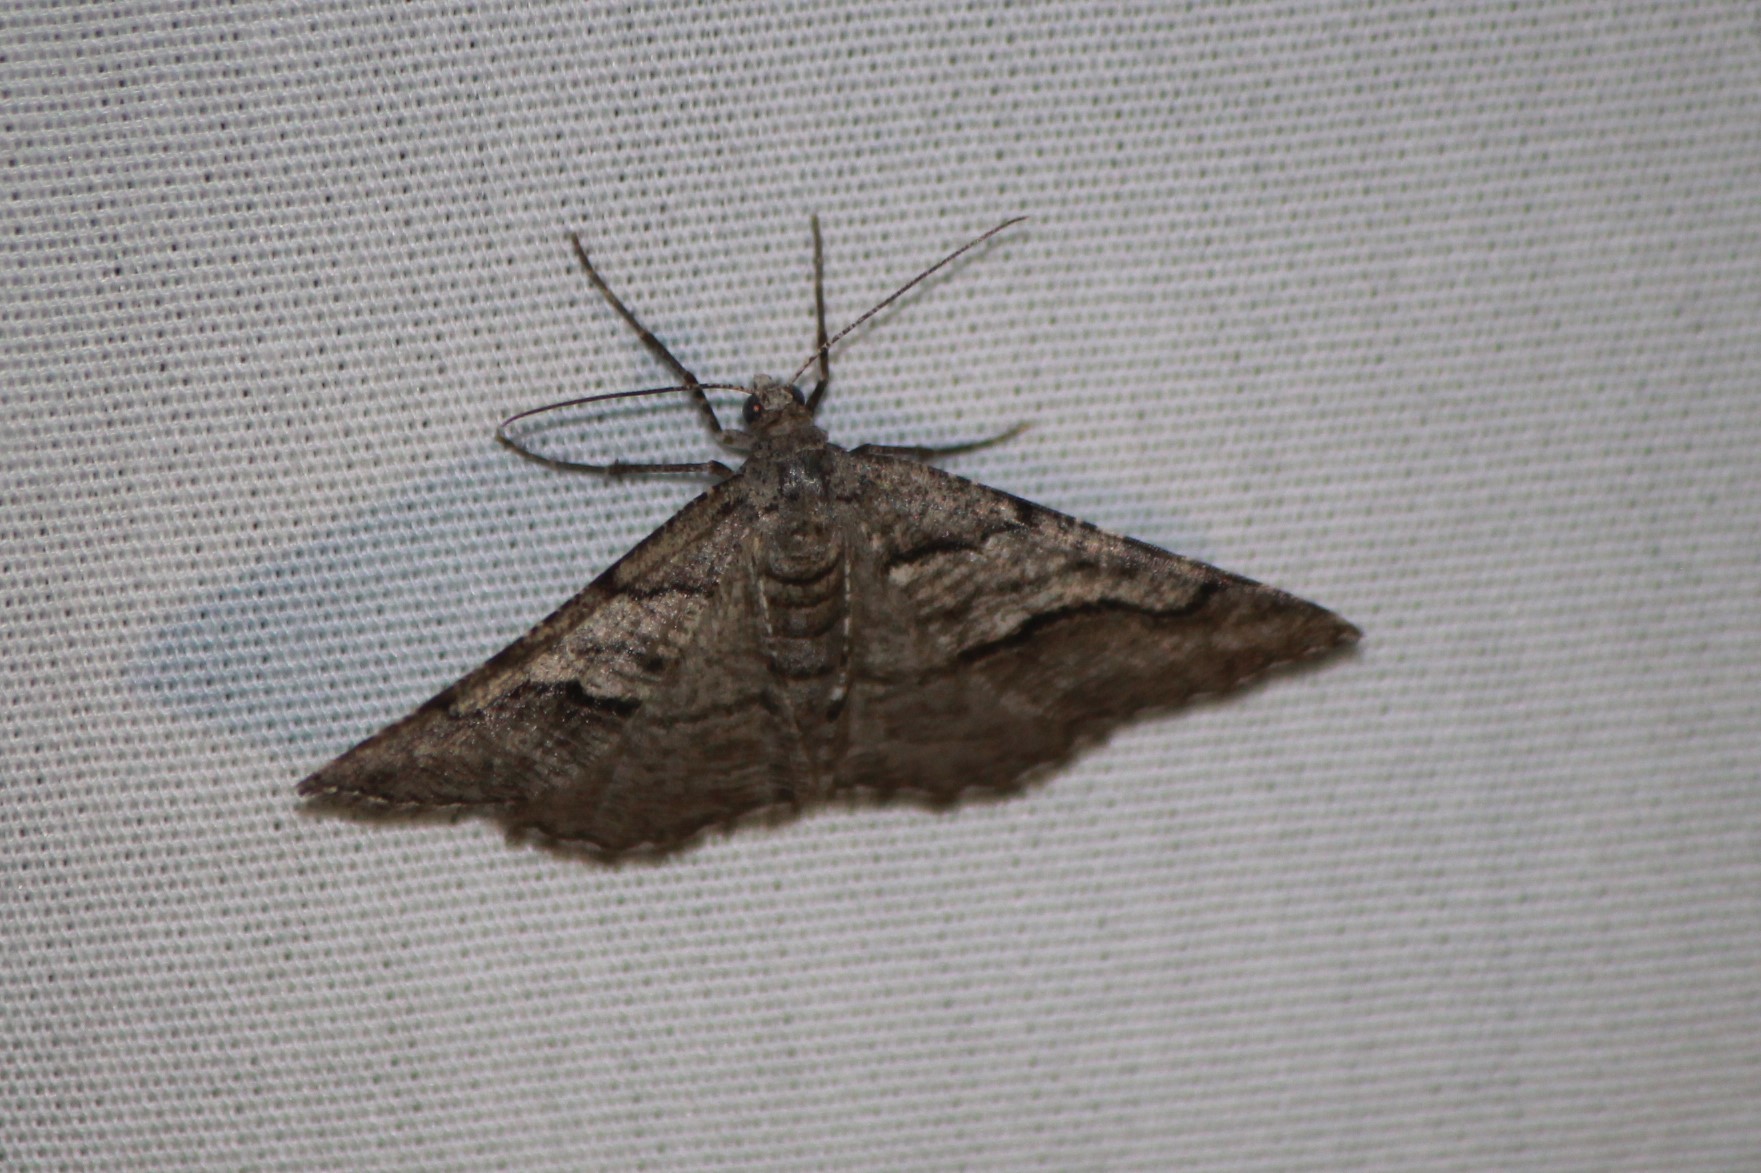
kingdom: Animalia
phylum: Arthropoda
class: Insecta
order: Lepidoptera
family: Geometridae
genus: Digrammia
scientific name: Digrammia continuata
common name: Curve-lined angle
